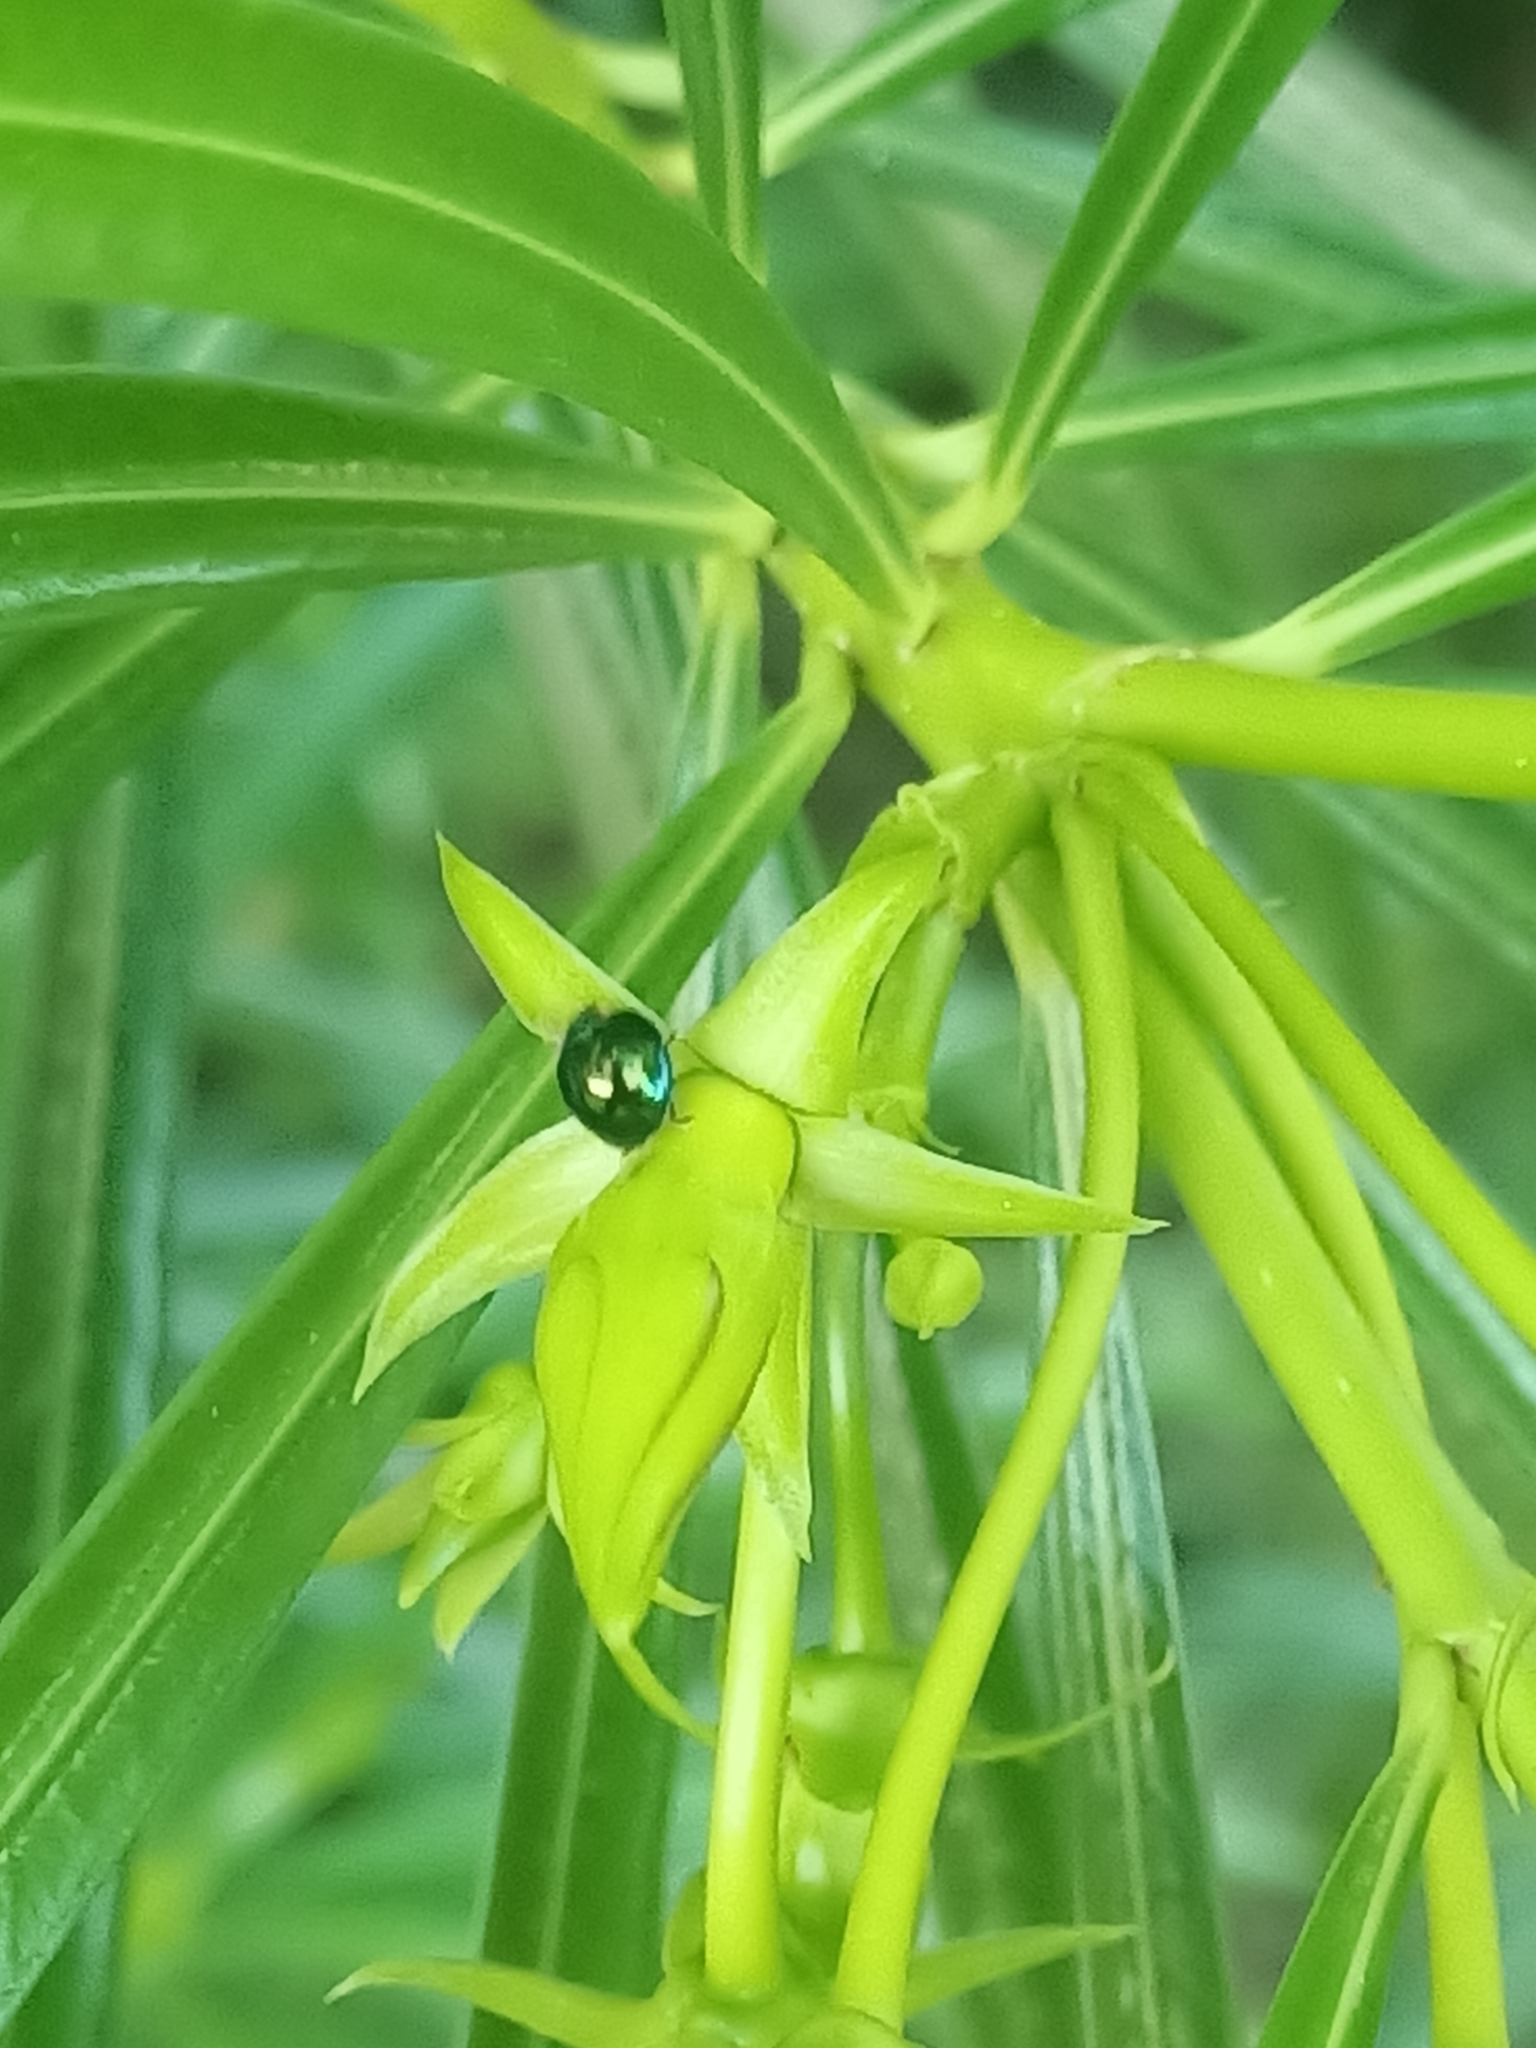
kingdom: Animalia
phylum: Arthropoda
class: Insecta
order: Coleoptera
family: Coccinellidae
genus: Halmus
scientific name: Halmus chalybeus
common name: Steel blue ladybird beetle
